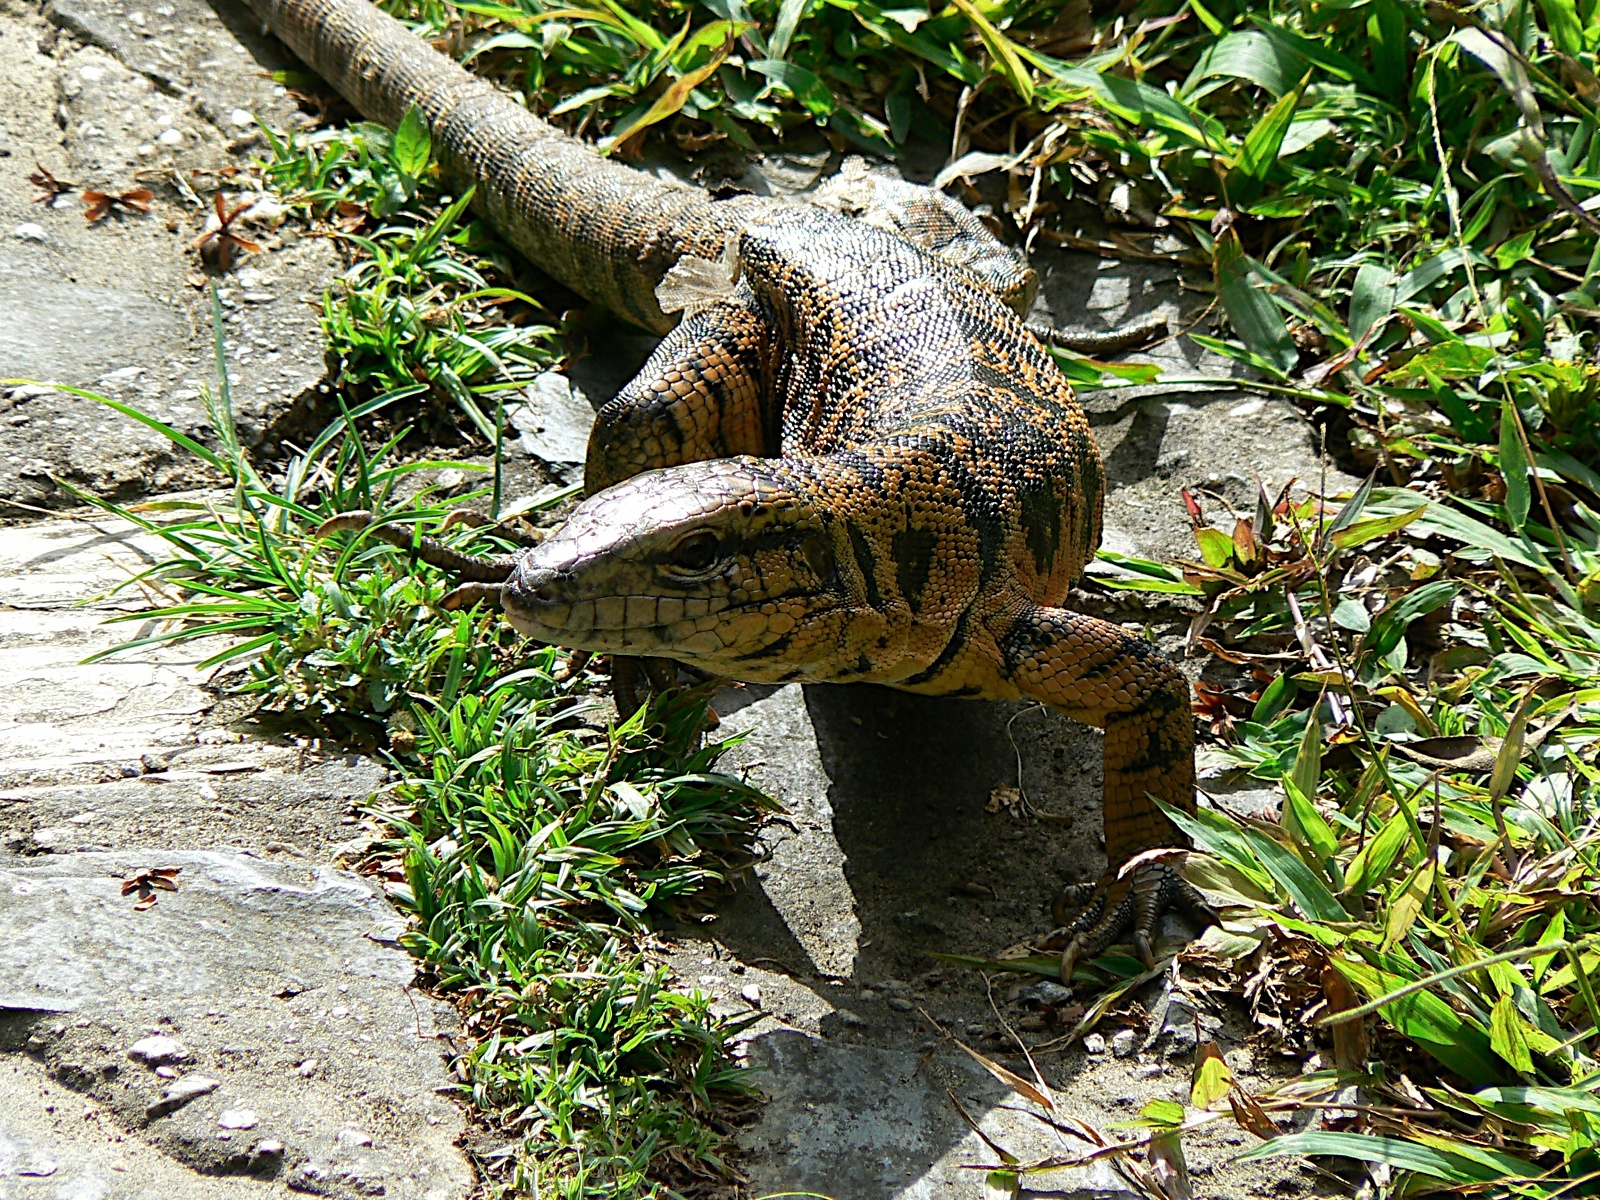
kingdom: Animalia
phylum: Chordata
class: Squamata
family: Teiidae
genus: Tupinambis
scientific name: Tupinambis cryptus
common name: Cryptic golden tegu
